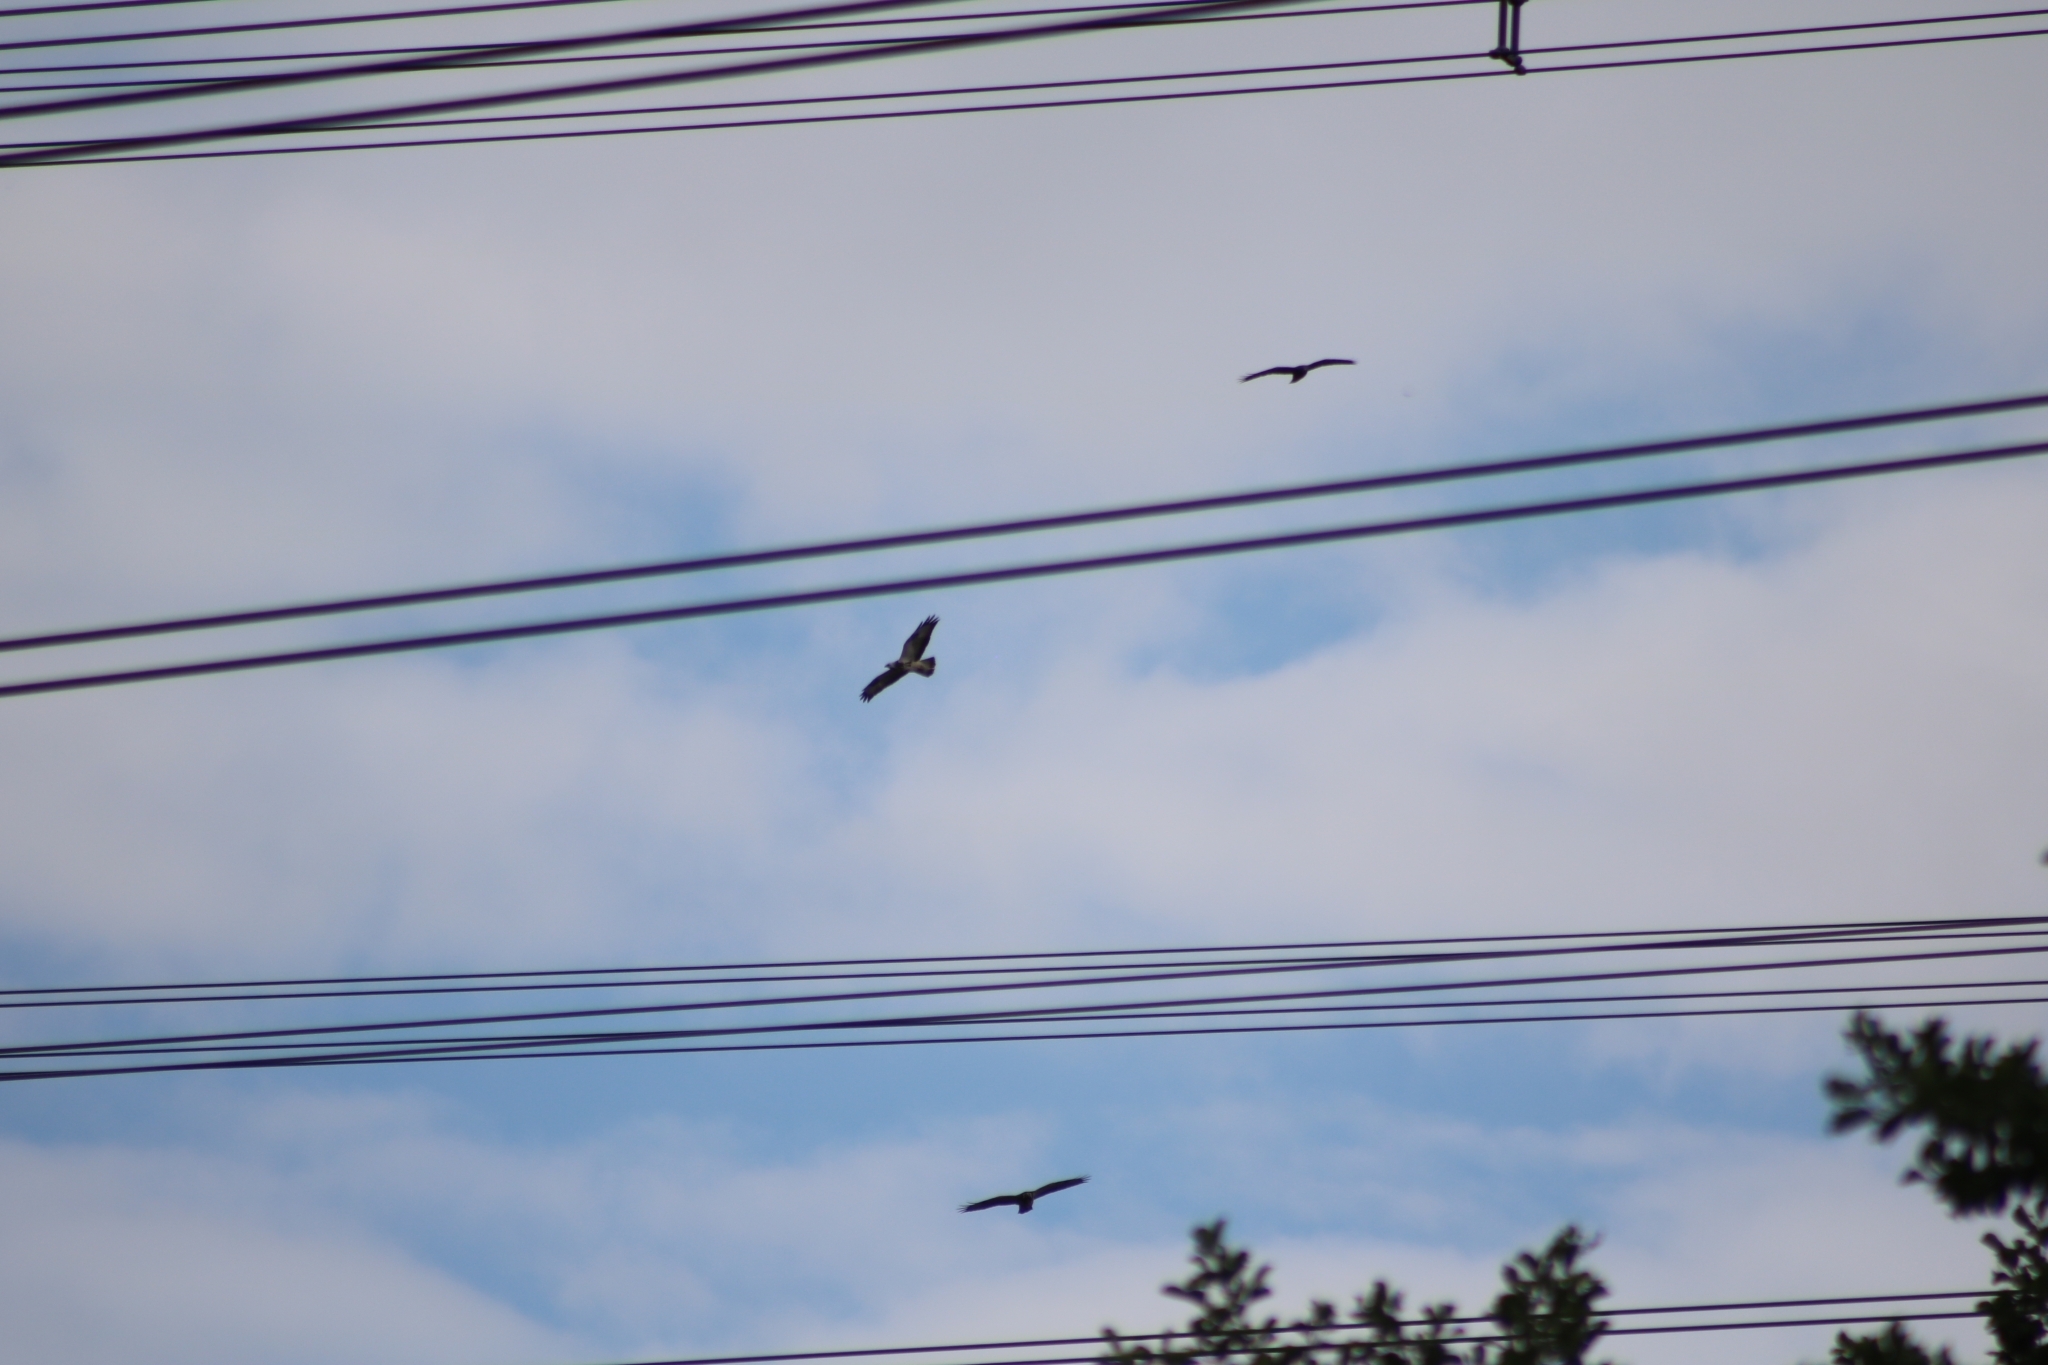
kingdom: Animalia
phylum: Chordata
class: Aves
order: Accipitriformes
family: Accipitridae
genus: Buteo
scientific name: Buteo buteo
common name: Common buzzard
